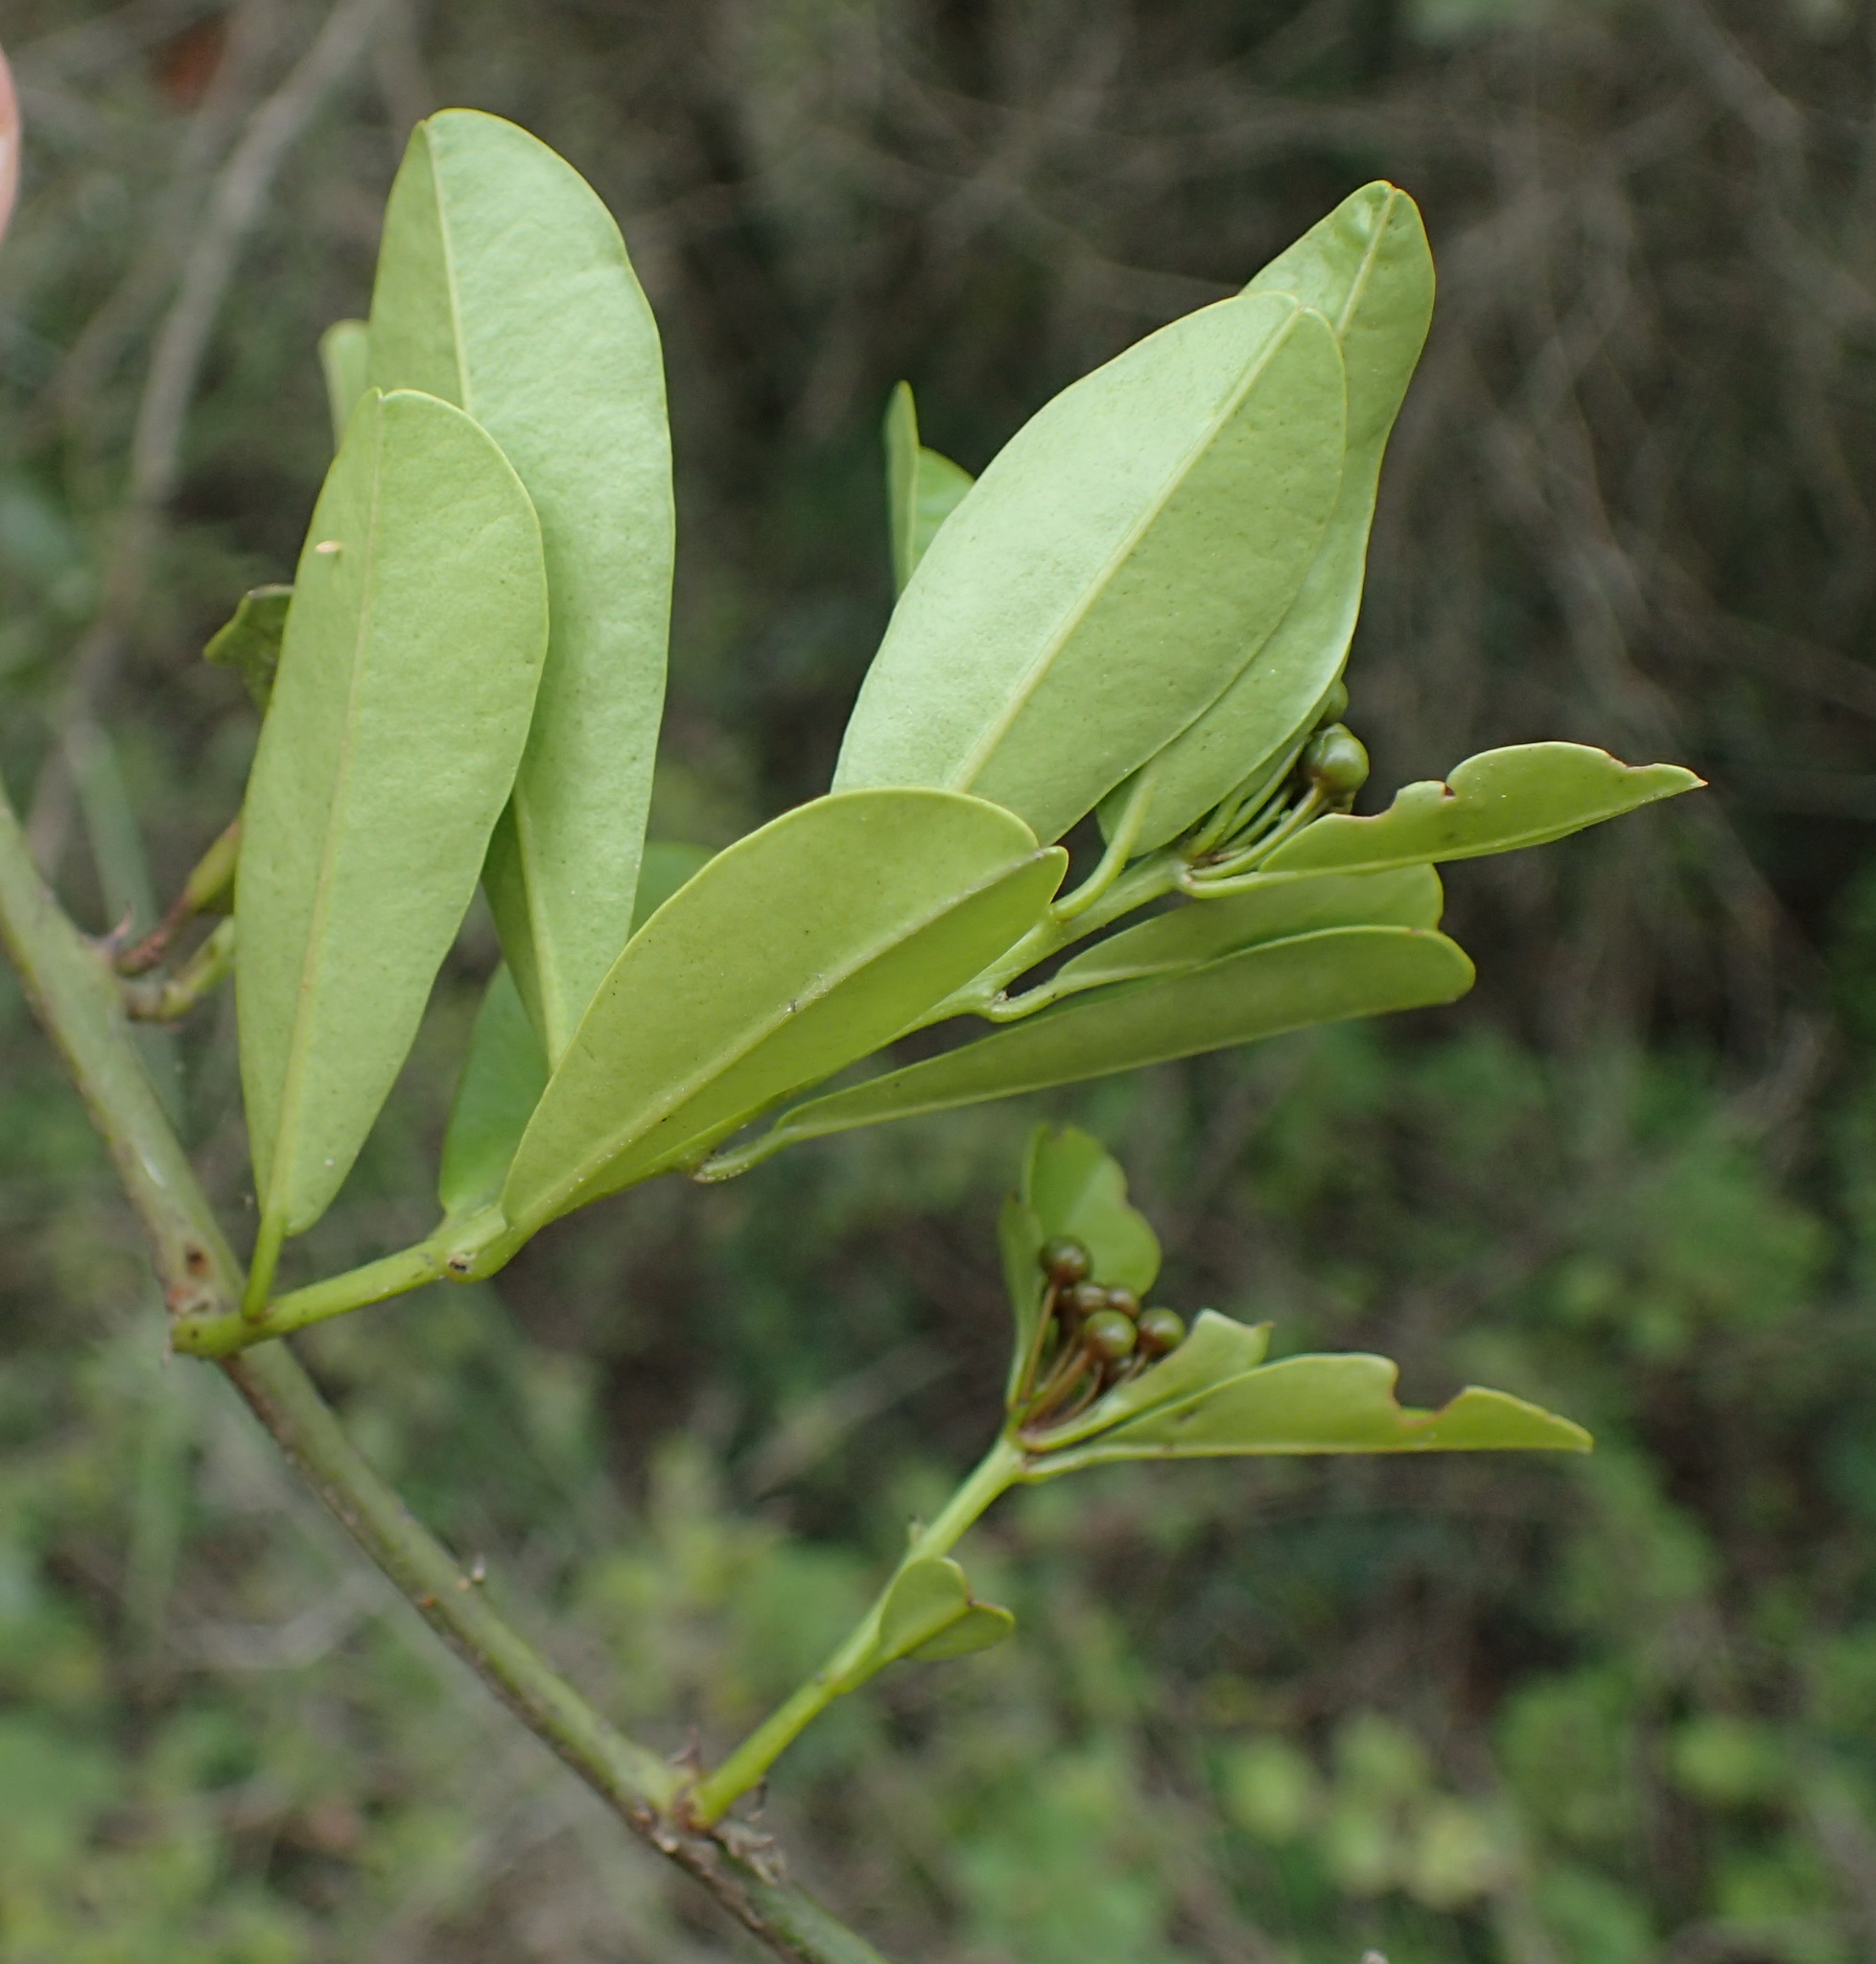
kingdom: Plantae
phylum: Tracheophyta
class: Magnoliopsida
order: Brassicales
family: Capparaceae
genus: Capparis
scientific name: Capparis sepiaria
